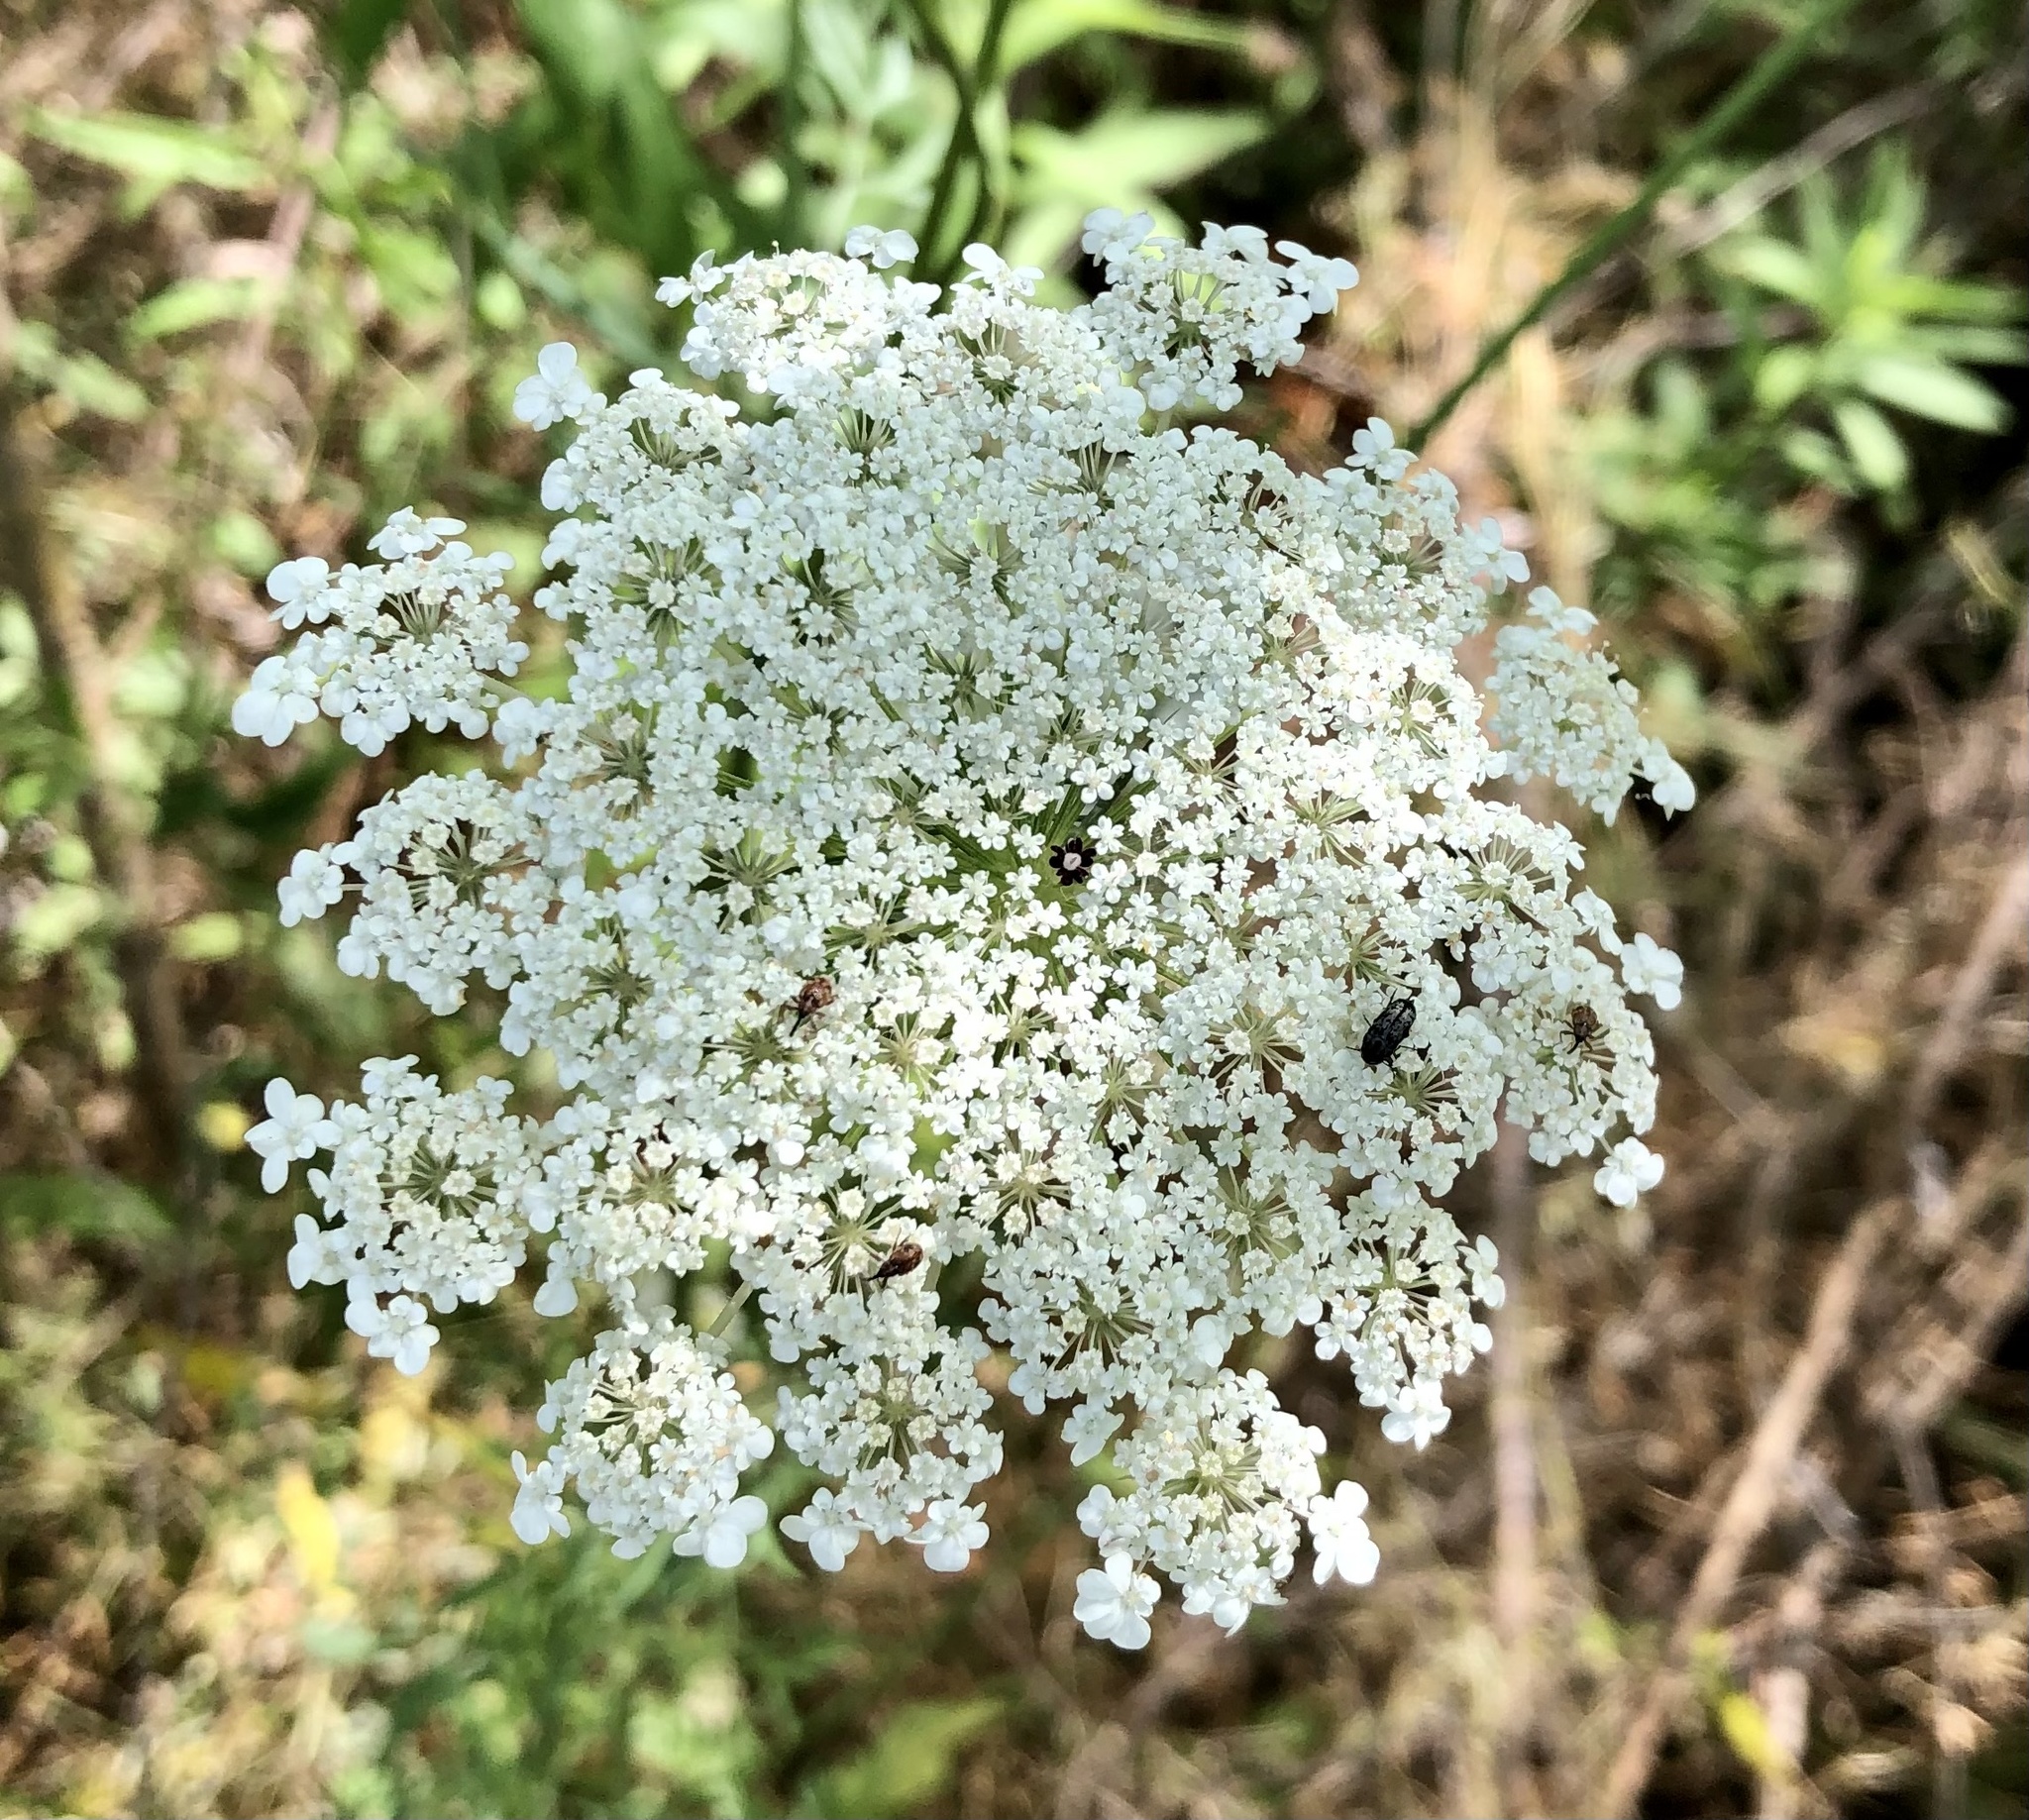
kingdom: Plantae
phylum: Tracheophyta
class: Magnoliopsida
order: Apiales
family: Apiaceae
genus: Daucus
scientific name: Daucus carota
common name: Wild carrot
